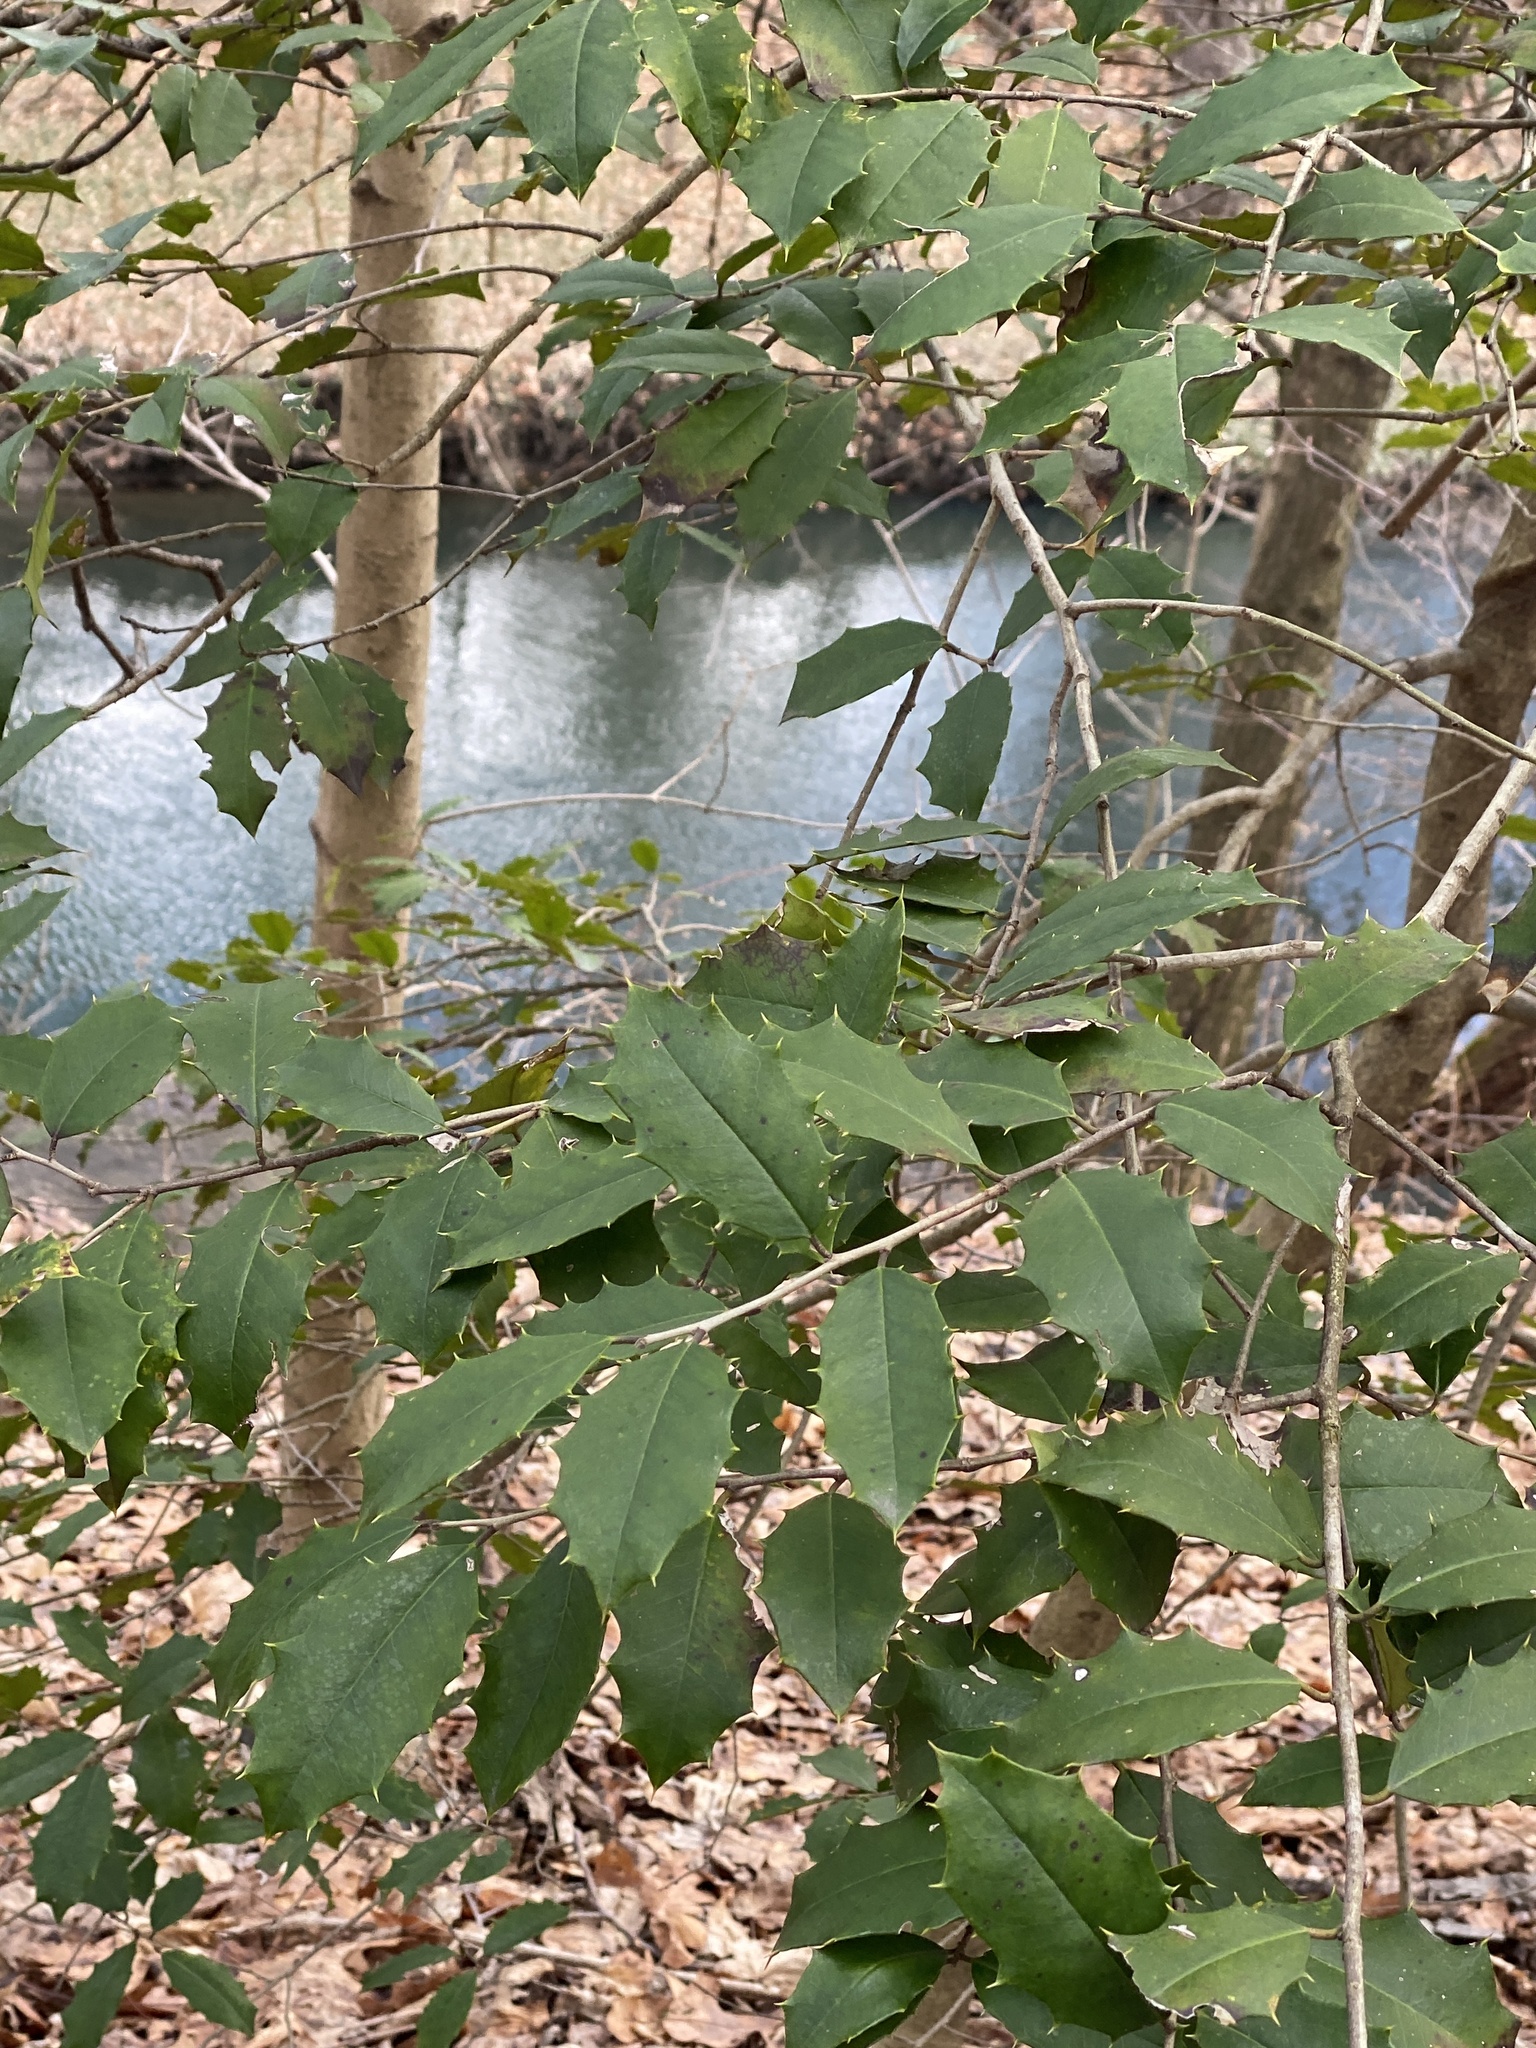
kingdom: Plantae
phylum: Tracheophyta
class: Magnoliopsida
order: Aquifoliales
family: Aquifoliaceae
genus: Ilex
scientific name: Ilex opaca
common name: American holly
